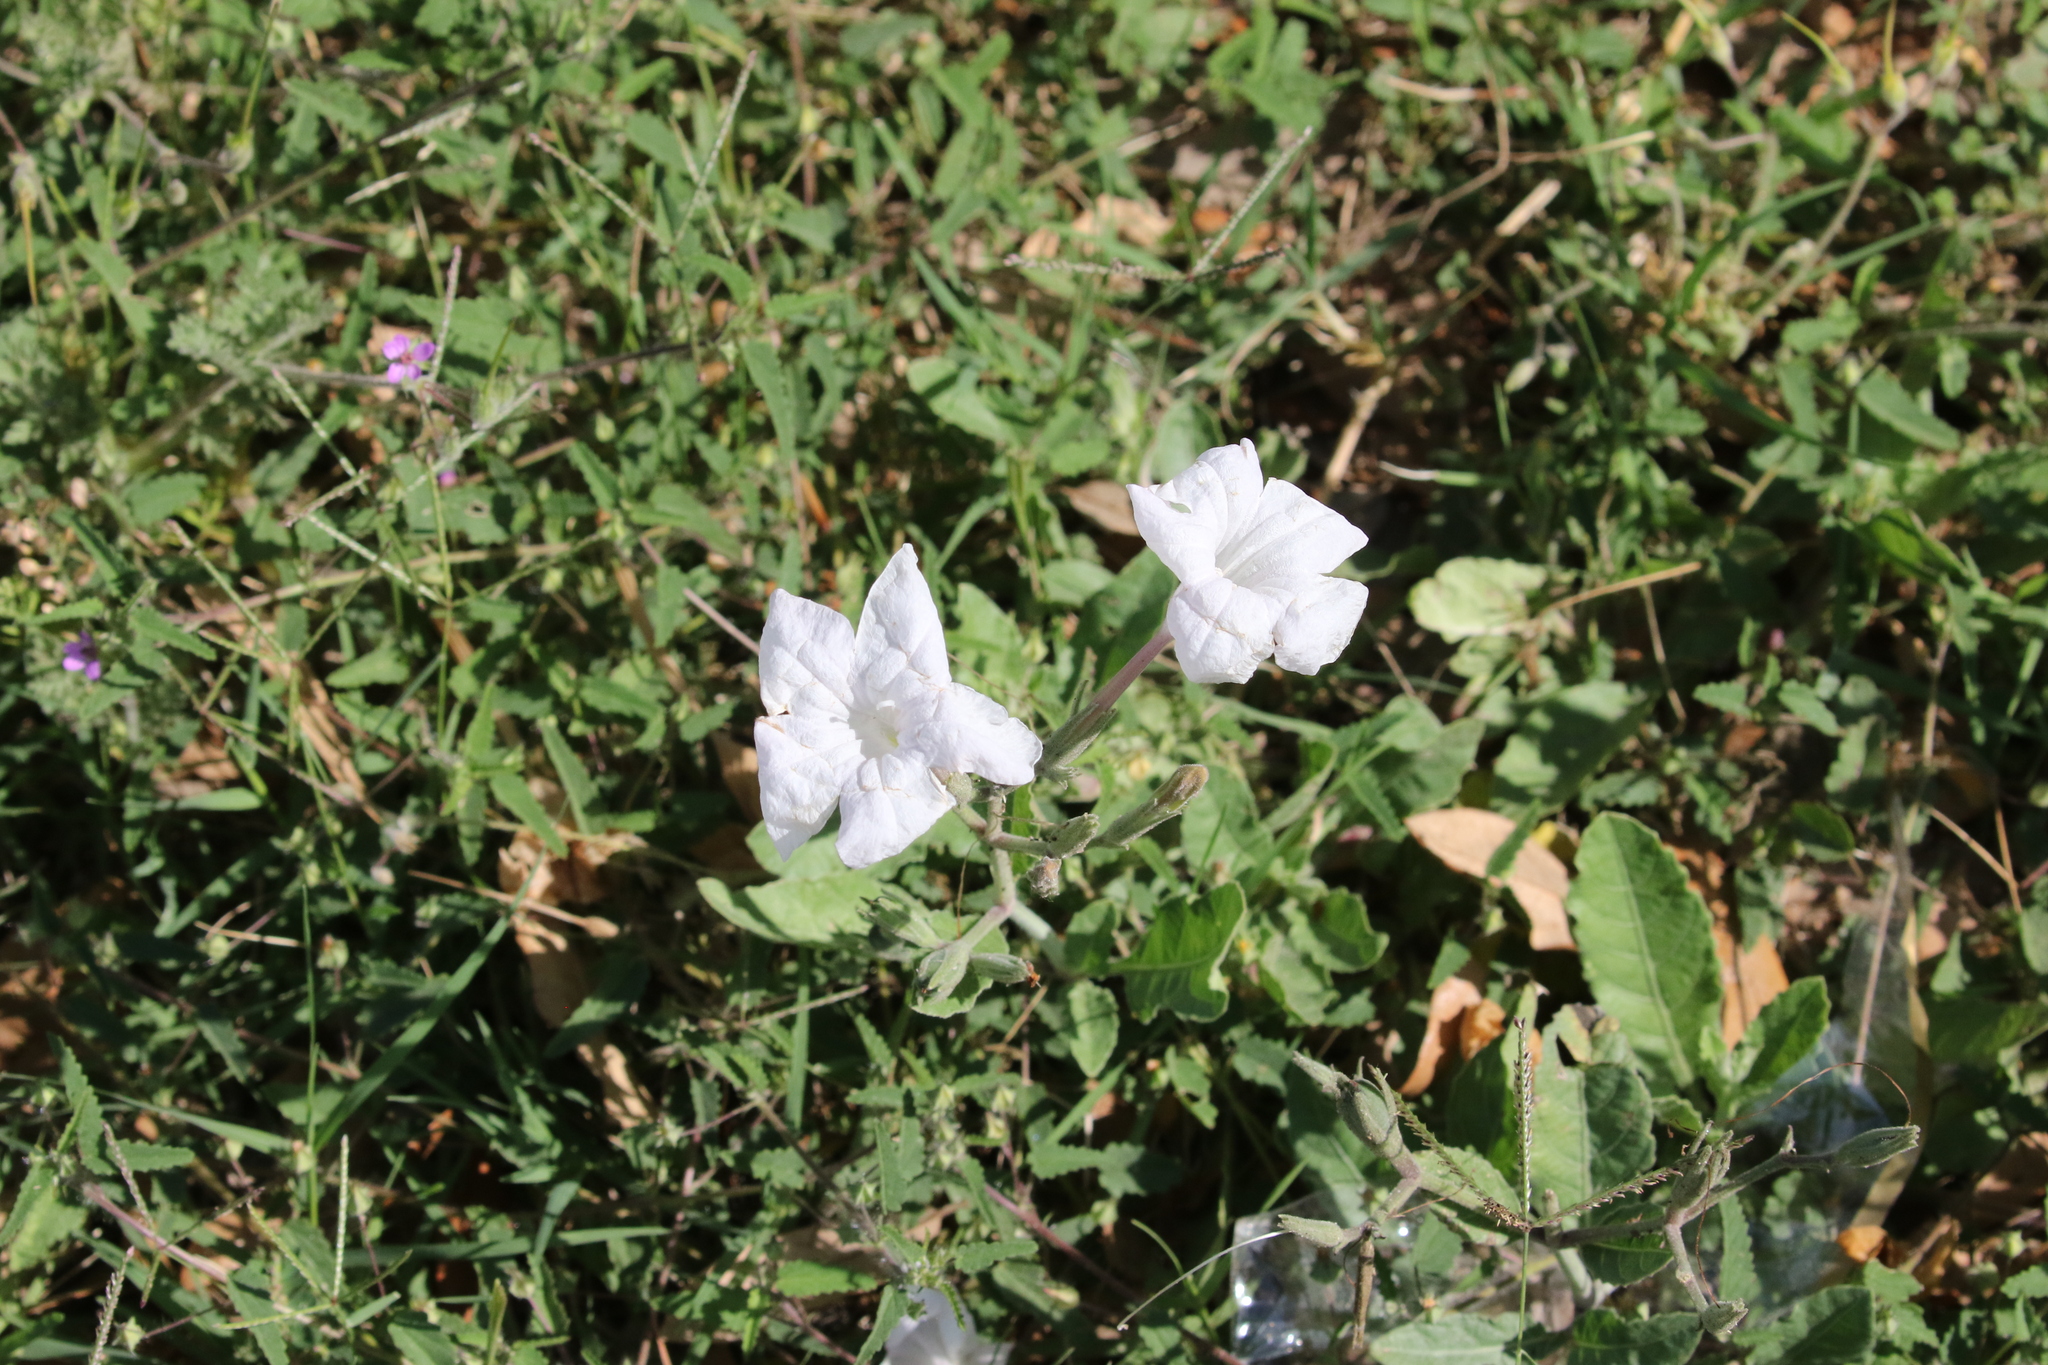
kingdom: Plantae
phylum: Tracheophyta
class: Magnoliopsida
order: Lamiales
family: Acanthaceae
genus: Ruellia
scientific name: Ruellia metziae
